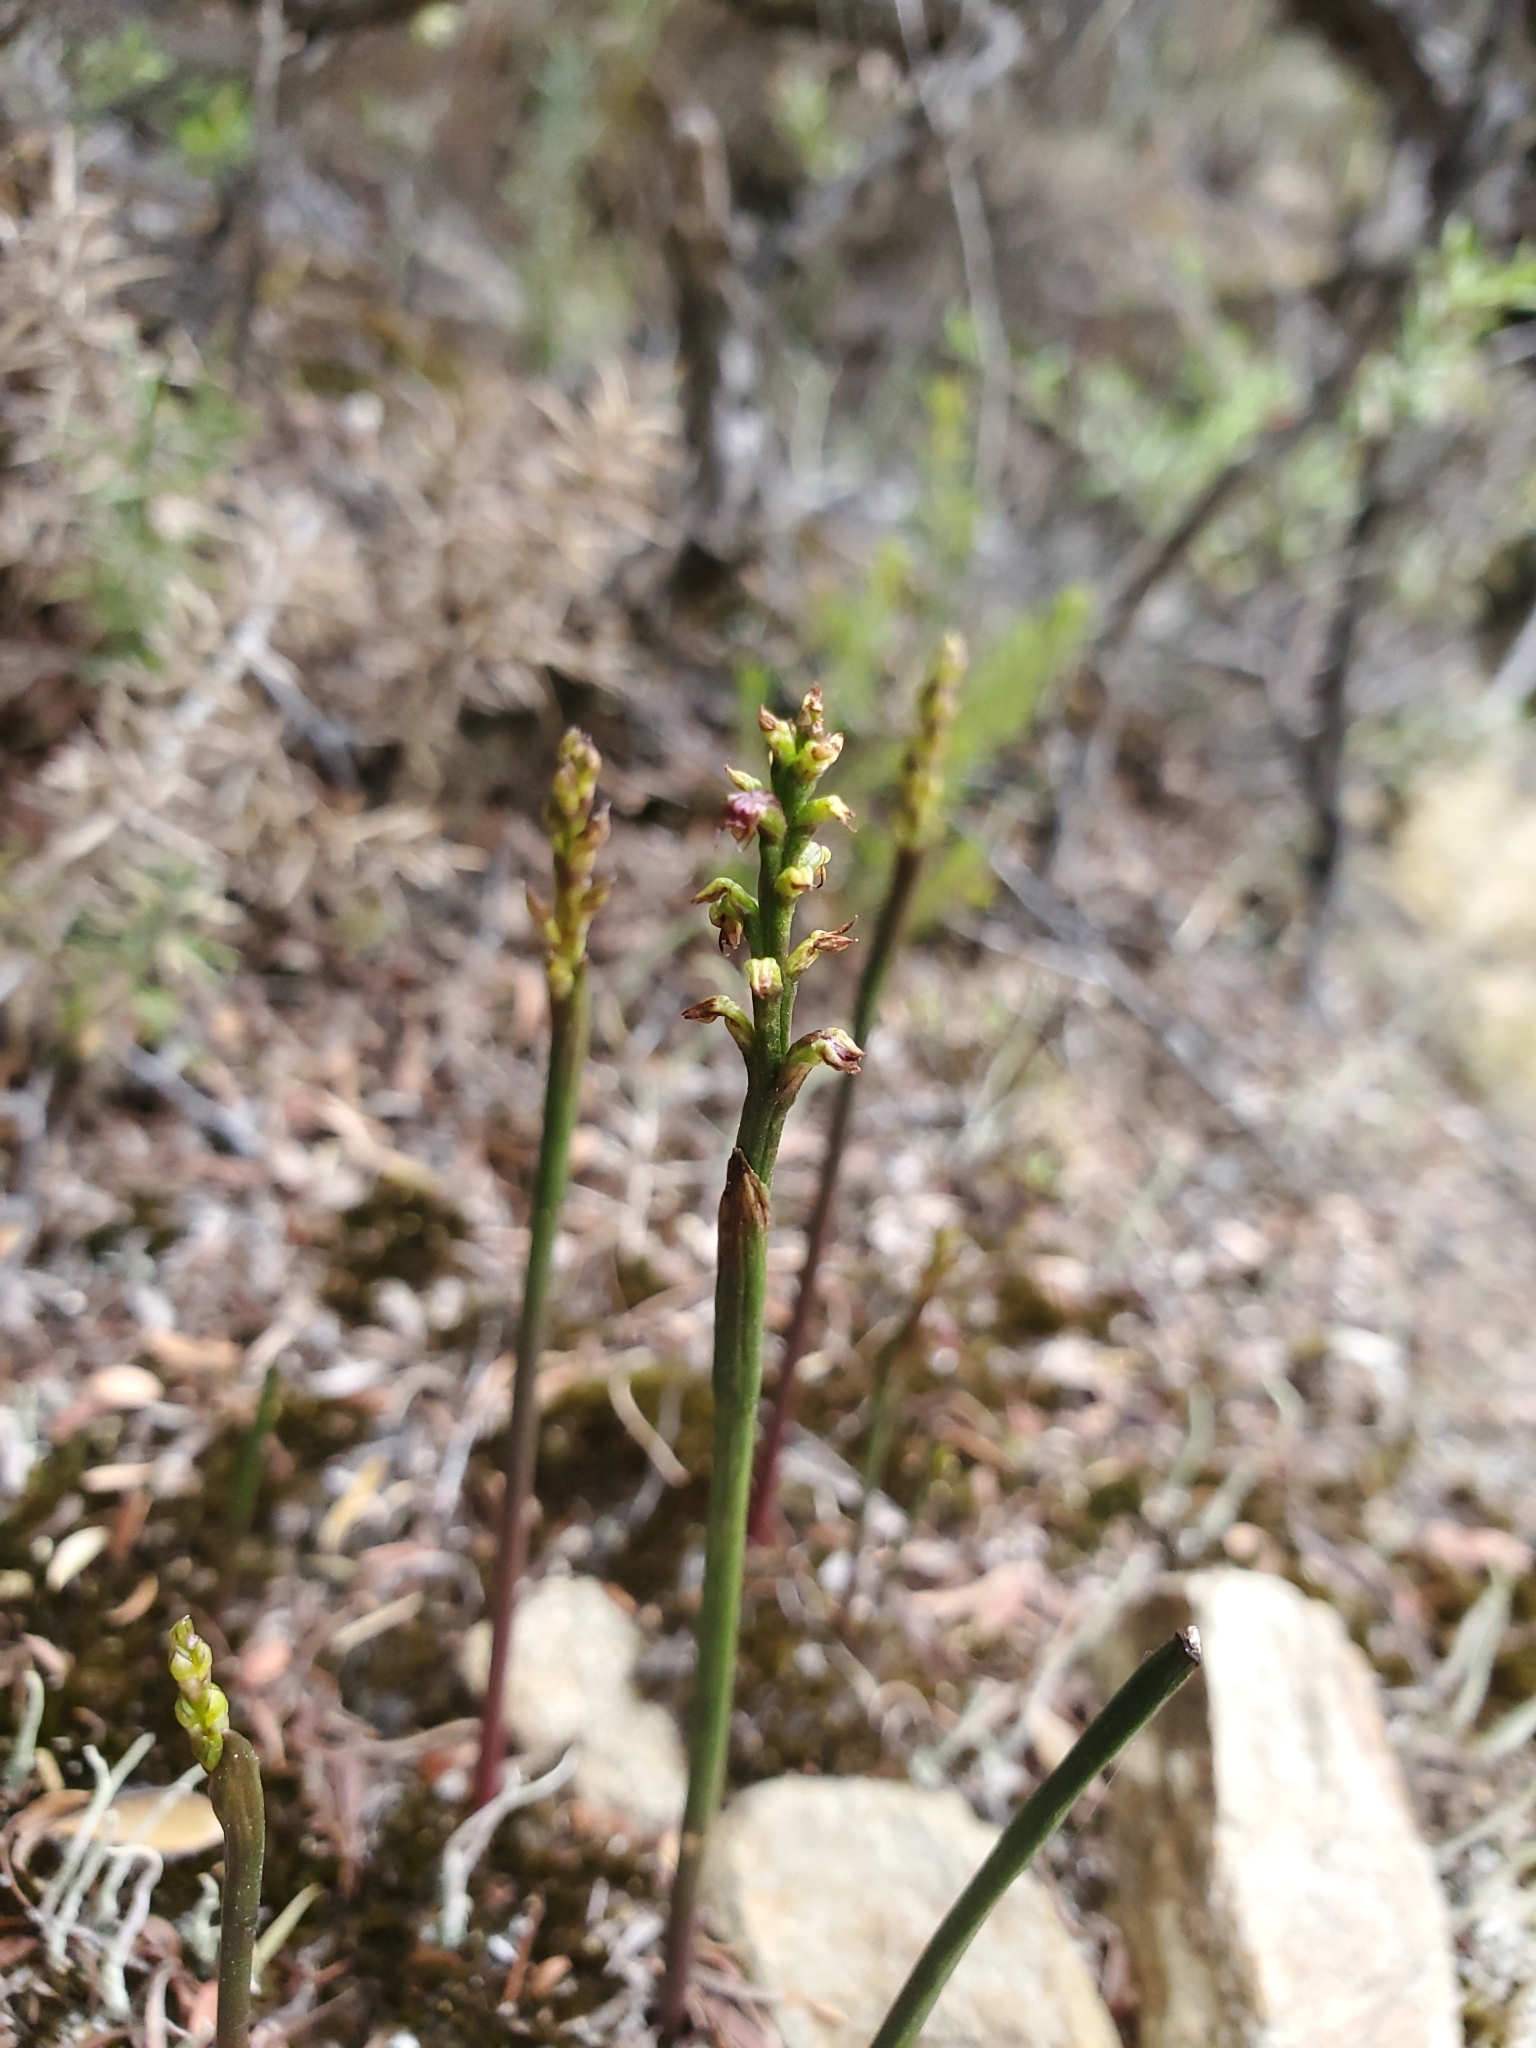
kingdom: Plantae
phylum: Tracheophyta
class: Liliopsida
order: Asparagales
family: Orchidaceae
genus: Genoplesium
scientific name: Genoplesium nudum
